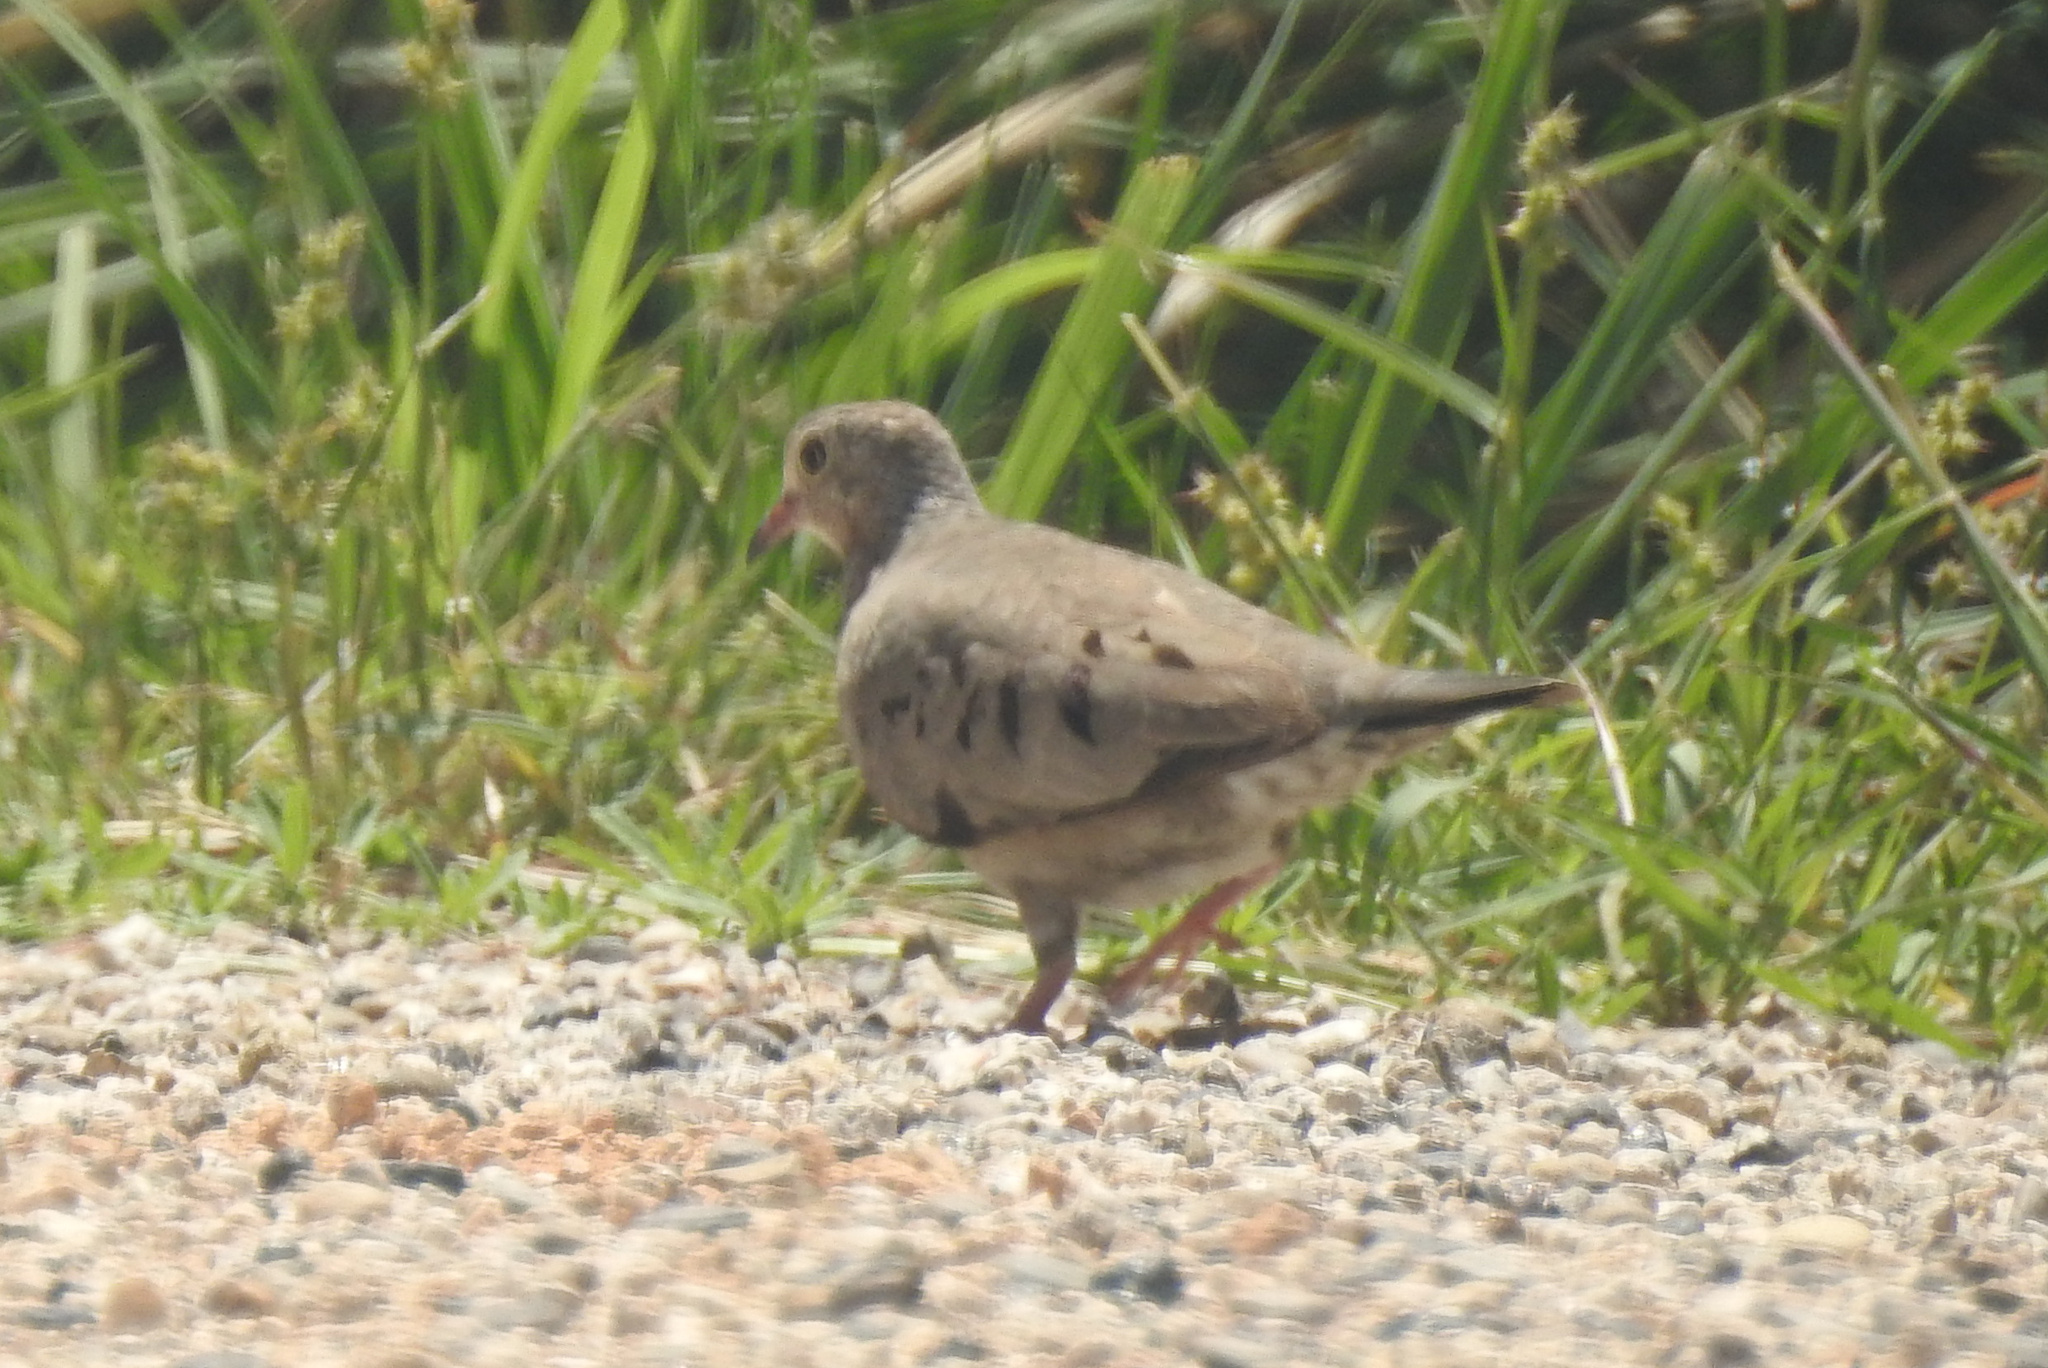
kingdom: Animalia
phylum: Chordata
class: Aves
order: Columbiformes
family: Columbidae
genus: Columbina
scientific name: Columbina passerina
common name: Common ground-dove
